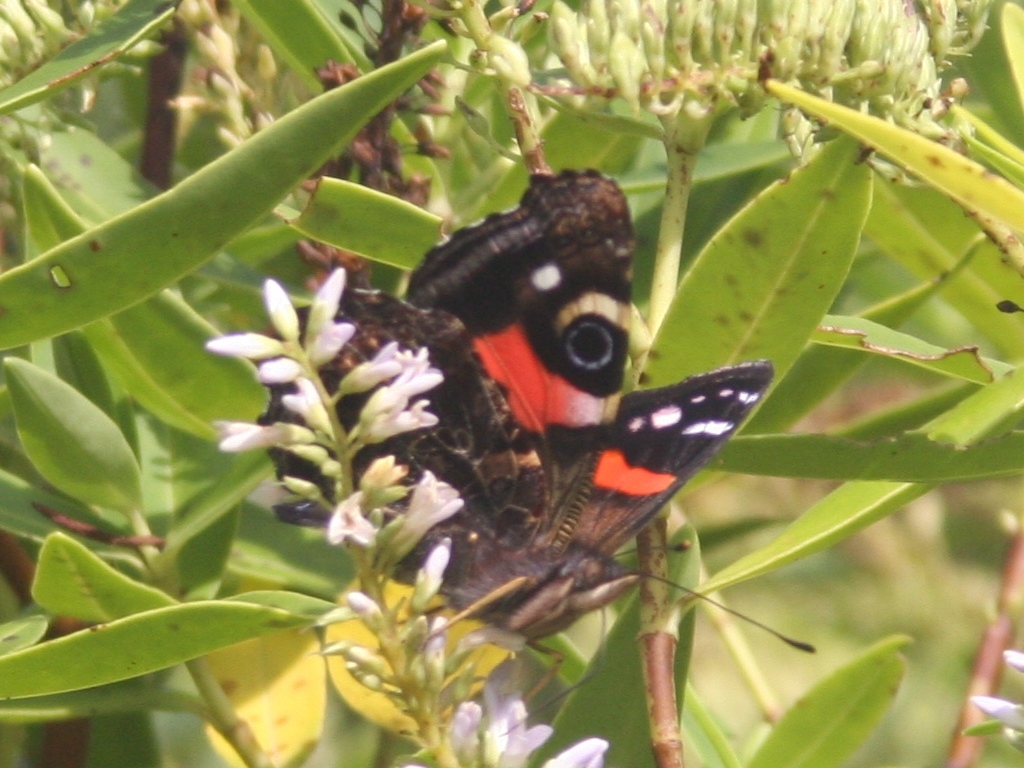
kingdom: Animalia
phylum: Arthropoda
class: Insecta
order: Lepidoptera
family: Nymphalidae
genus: Vanessa
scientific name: Vanessa gonerilla
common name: New zealand red admiral
